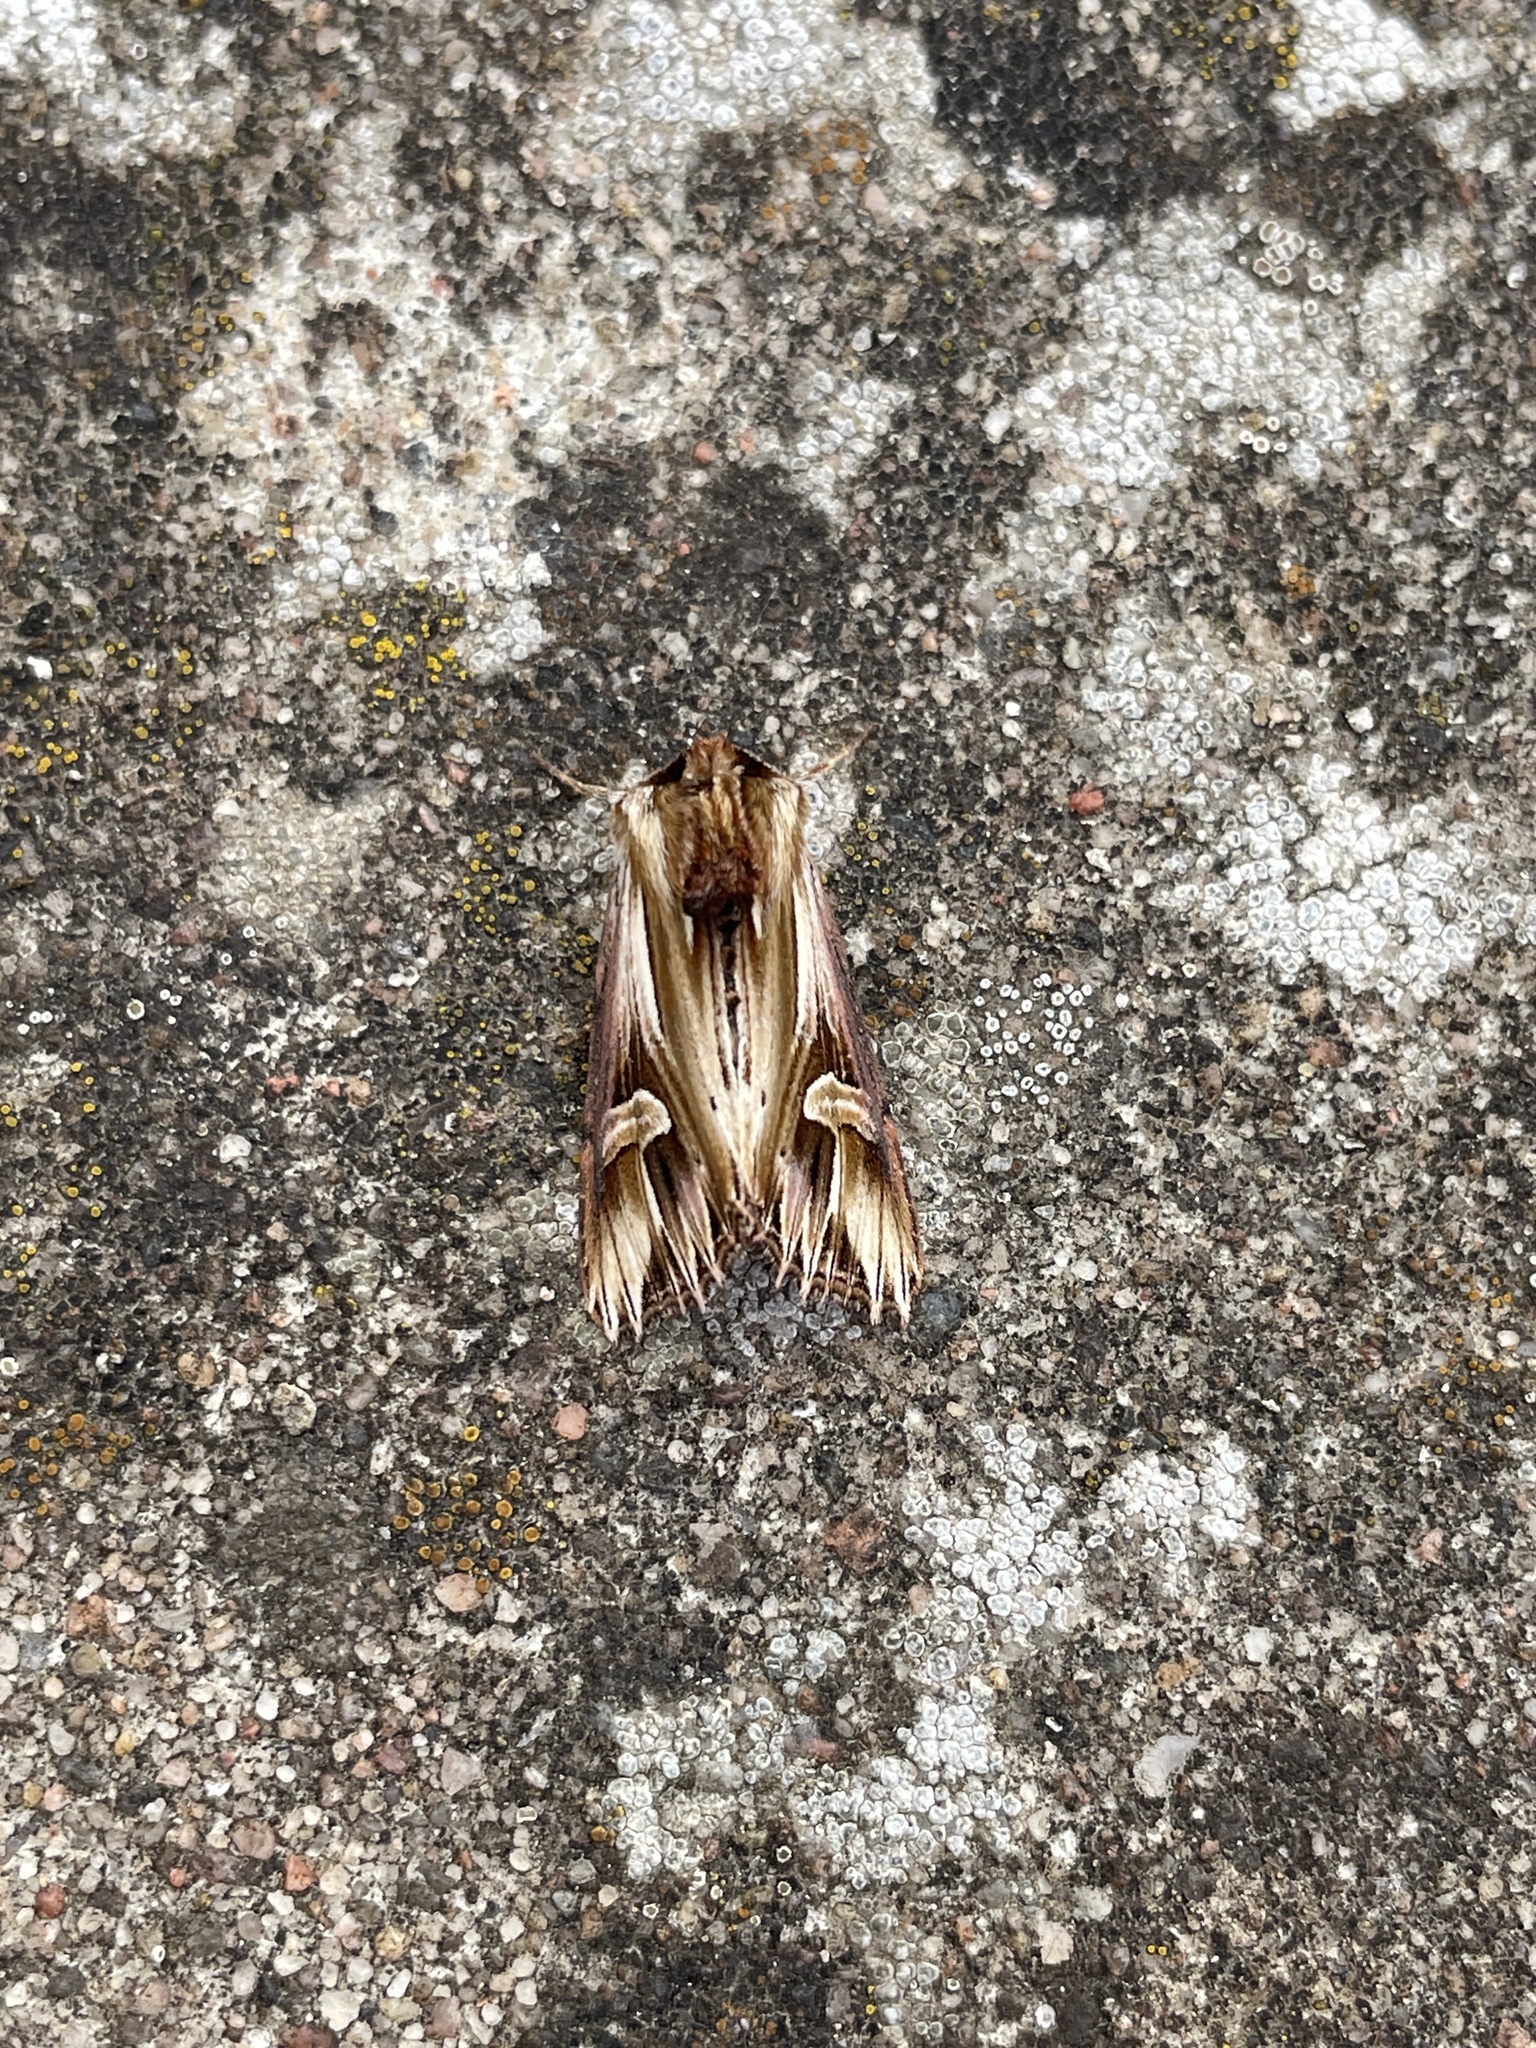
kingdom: Animalia
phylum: Arthropoda
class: Insecta
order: Lepidoptera
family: Noctuidae
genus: Actinotia
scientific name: Actinotia polyodon
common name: Purple cloud
